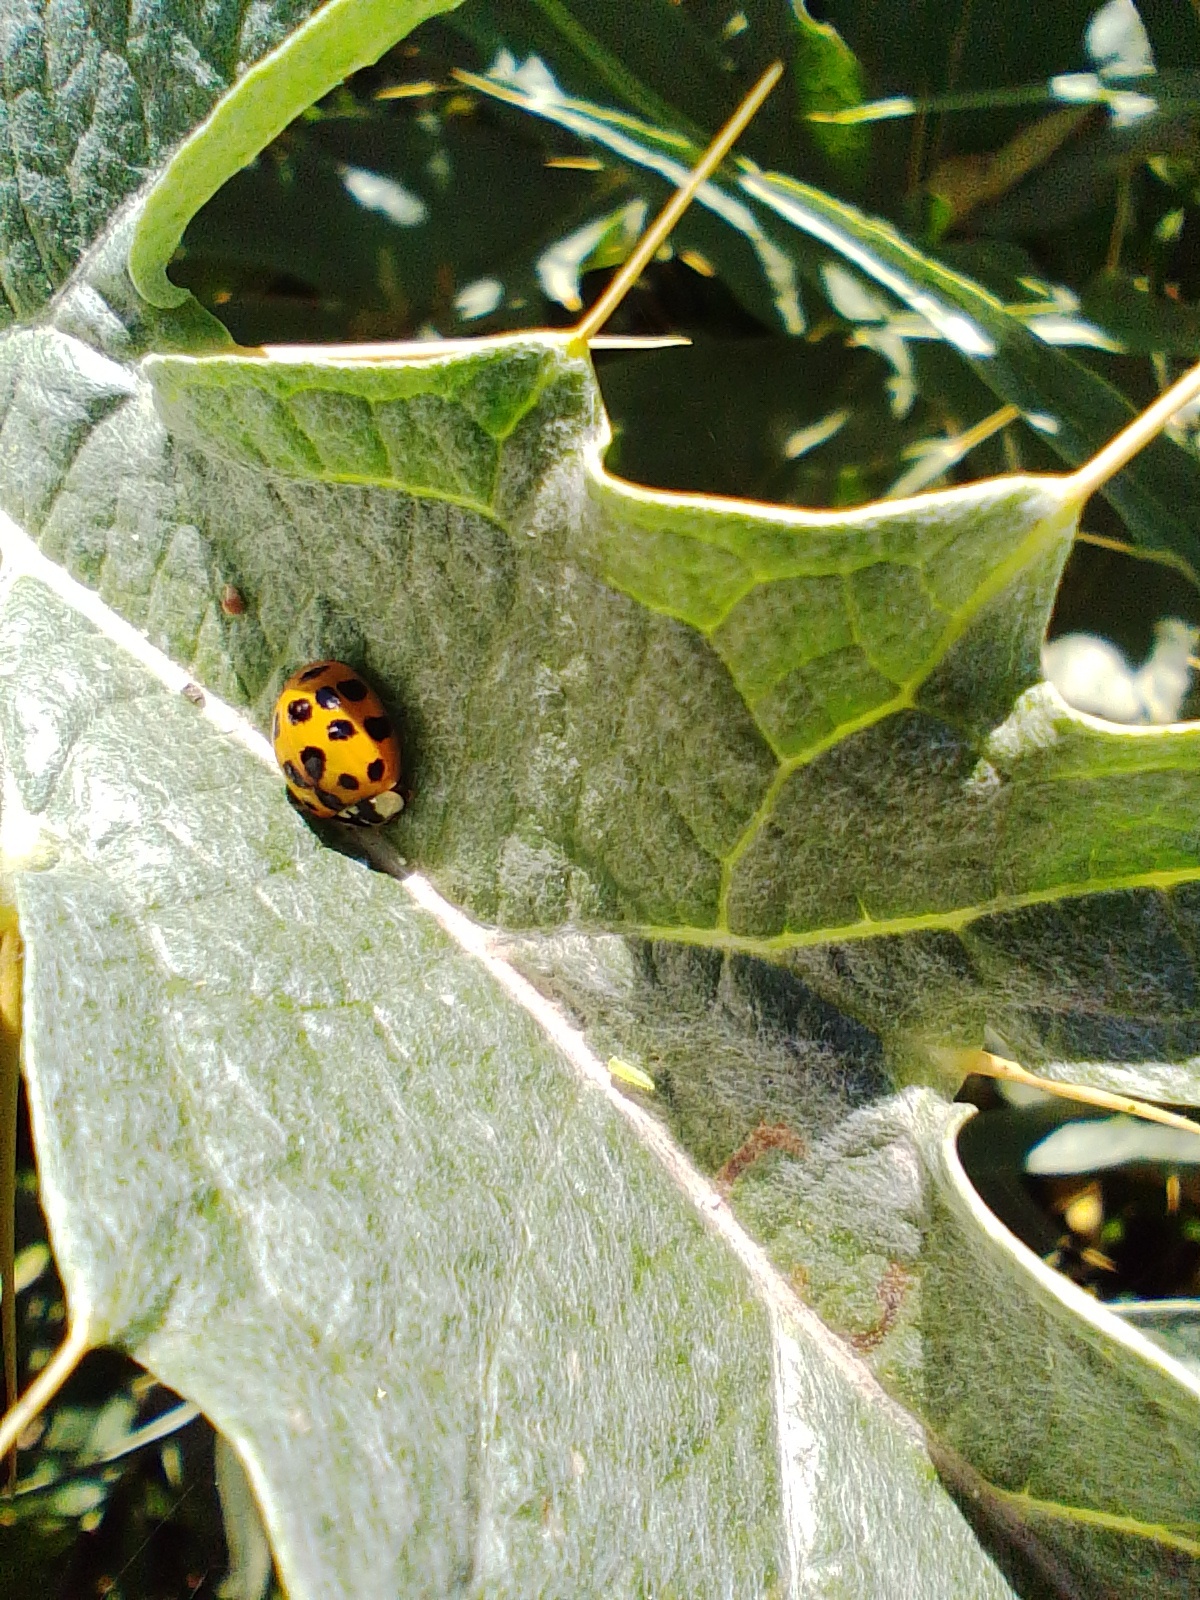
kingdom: Animalia
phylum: Arthropoda
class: Insecta
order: Coleoptera
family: Coccinellidae
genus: Harmonia
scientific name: Harmonia axyridis
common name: Harlequin ladybird
